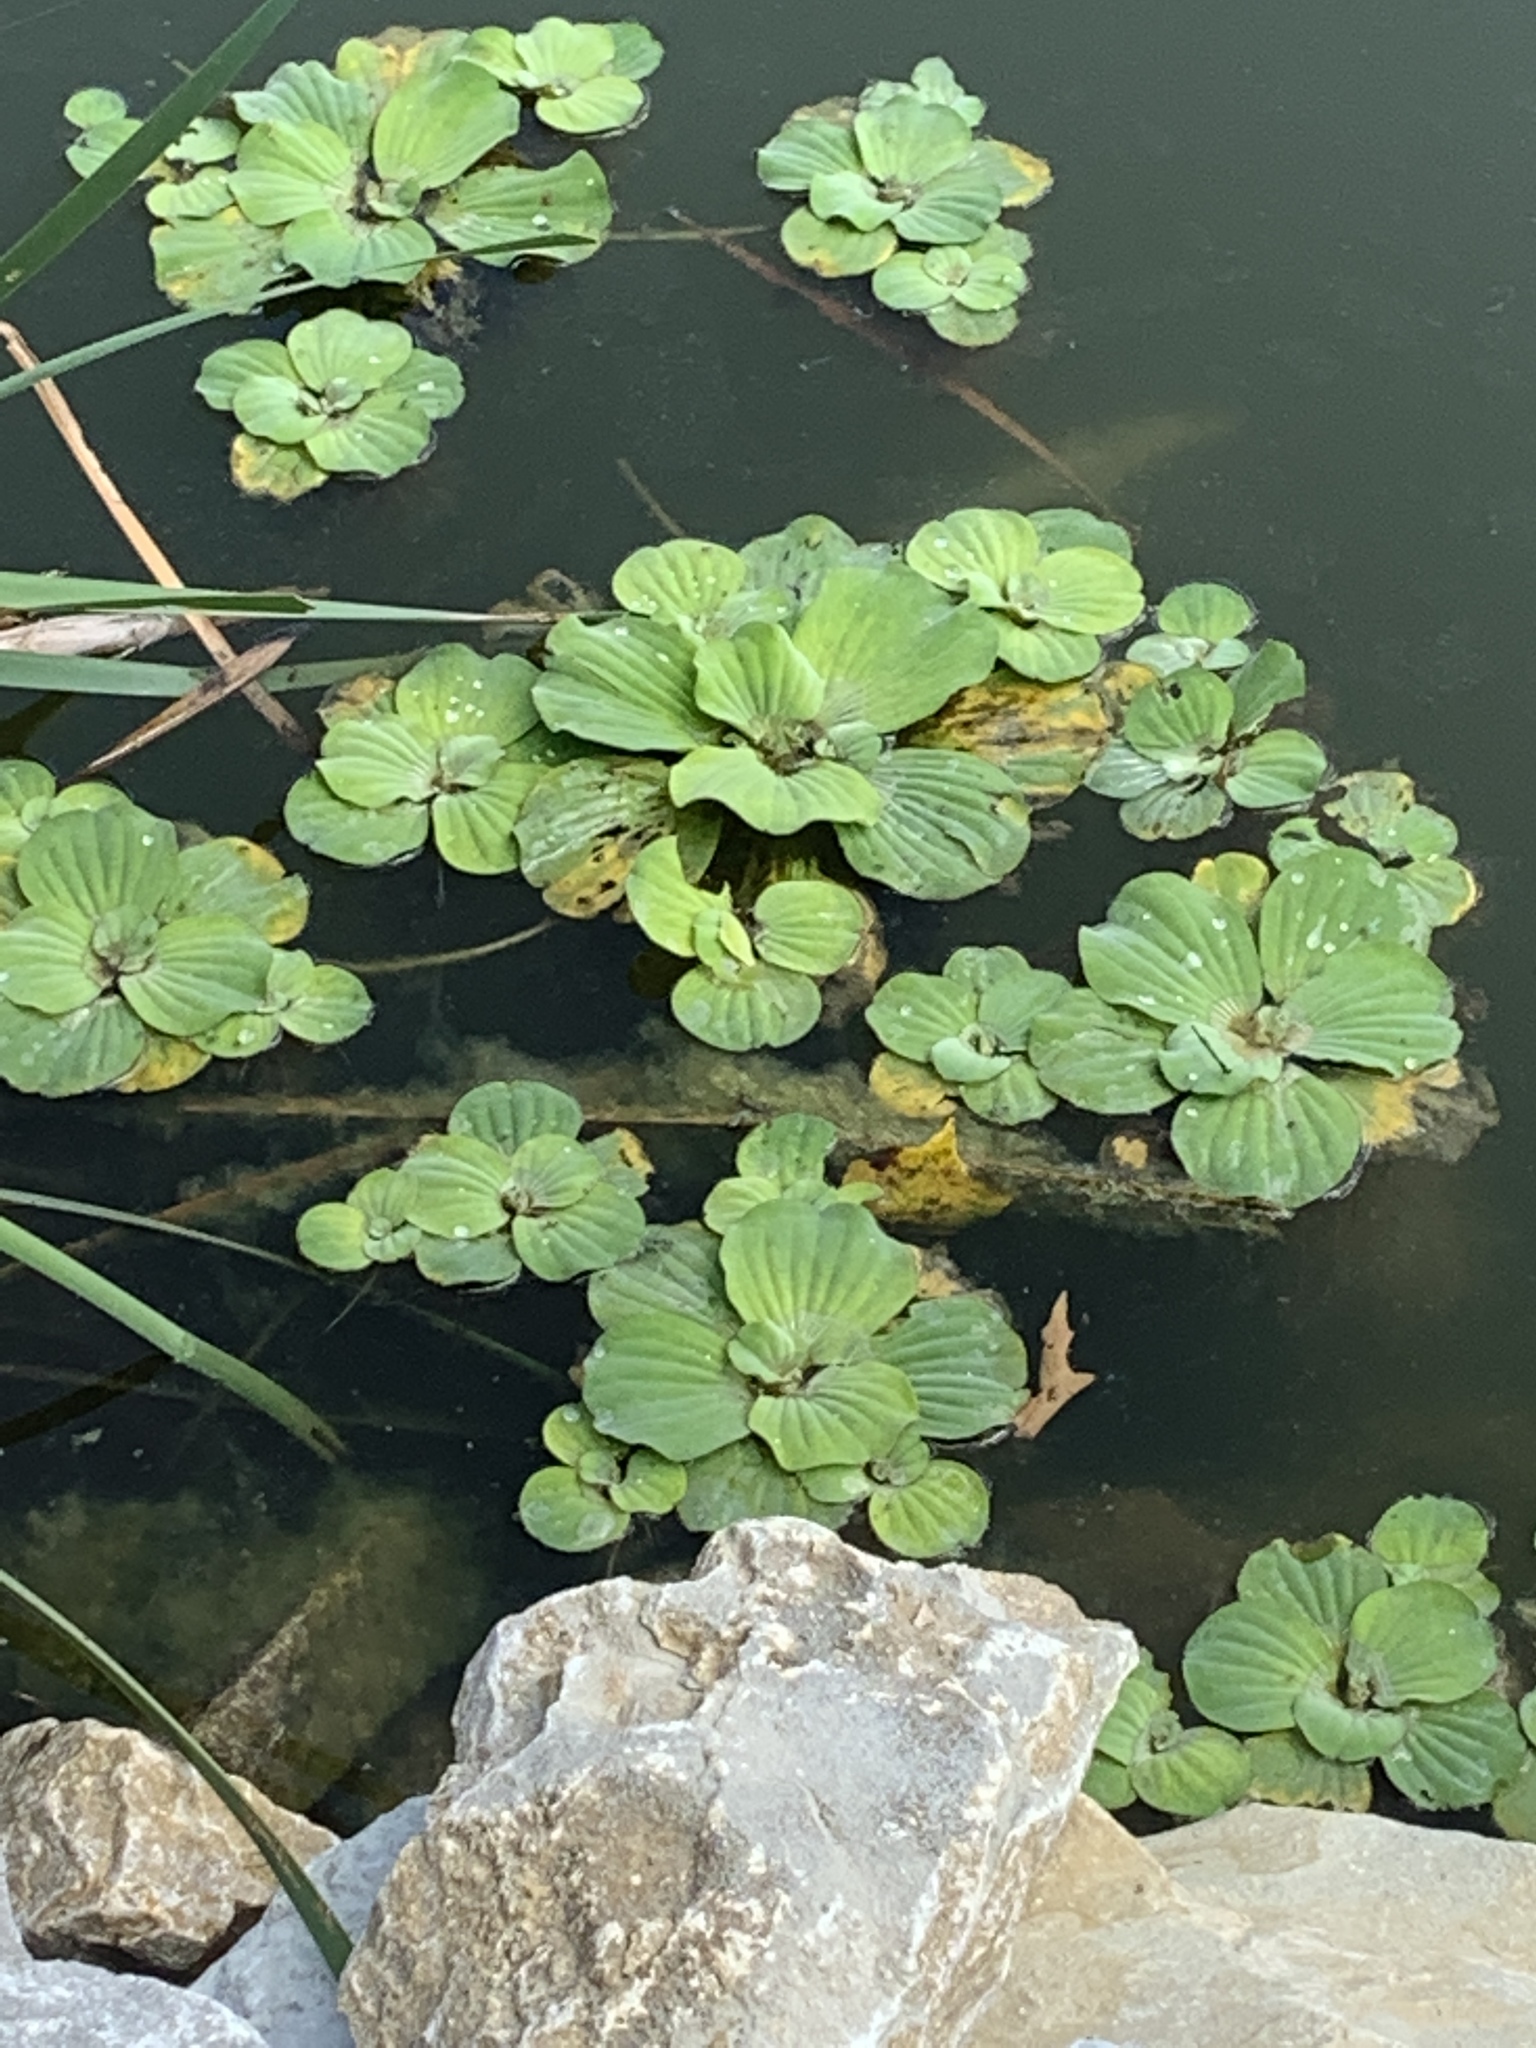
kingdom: Plantae
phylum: Tracheophyta
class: Liliopsida
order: Alismatales
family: Araceae
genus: Pistia
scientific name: Pistia stratiotes
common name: Water lettuce
